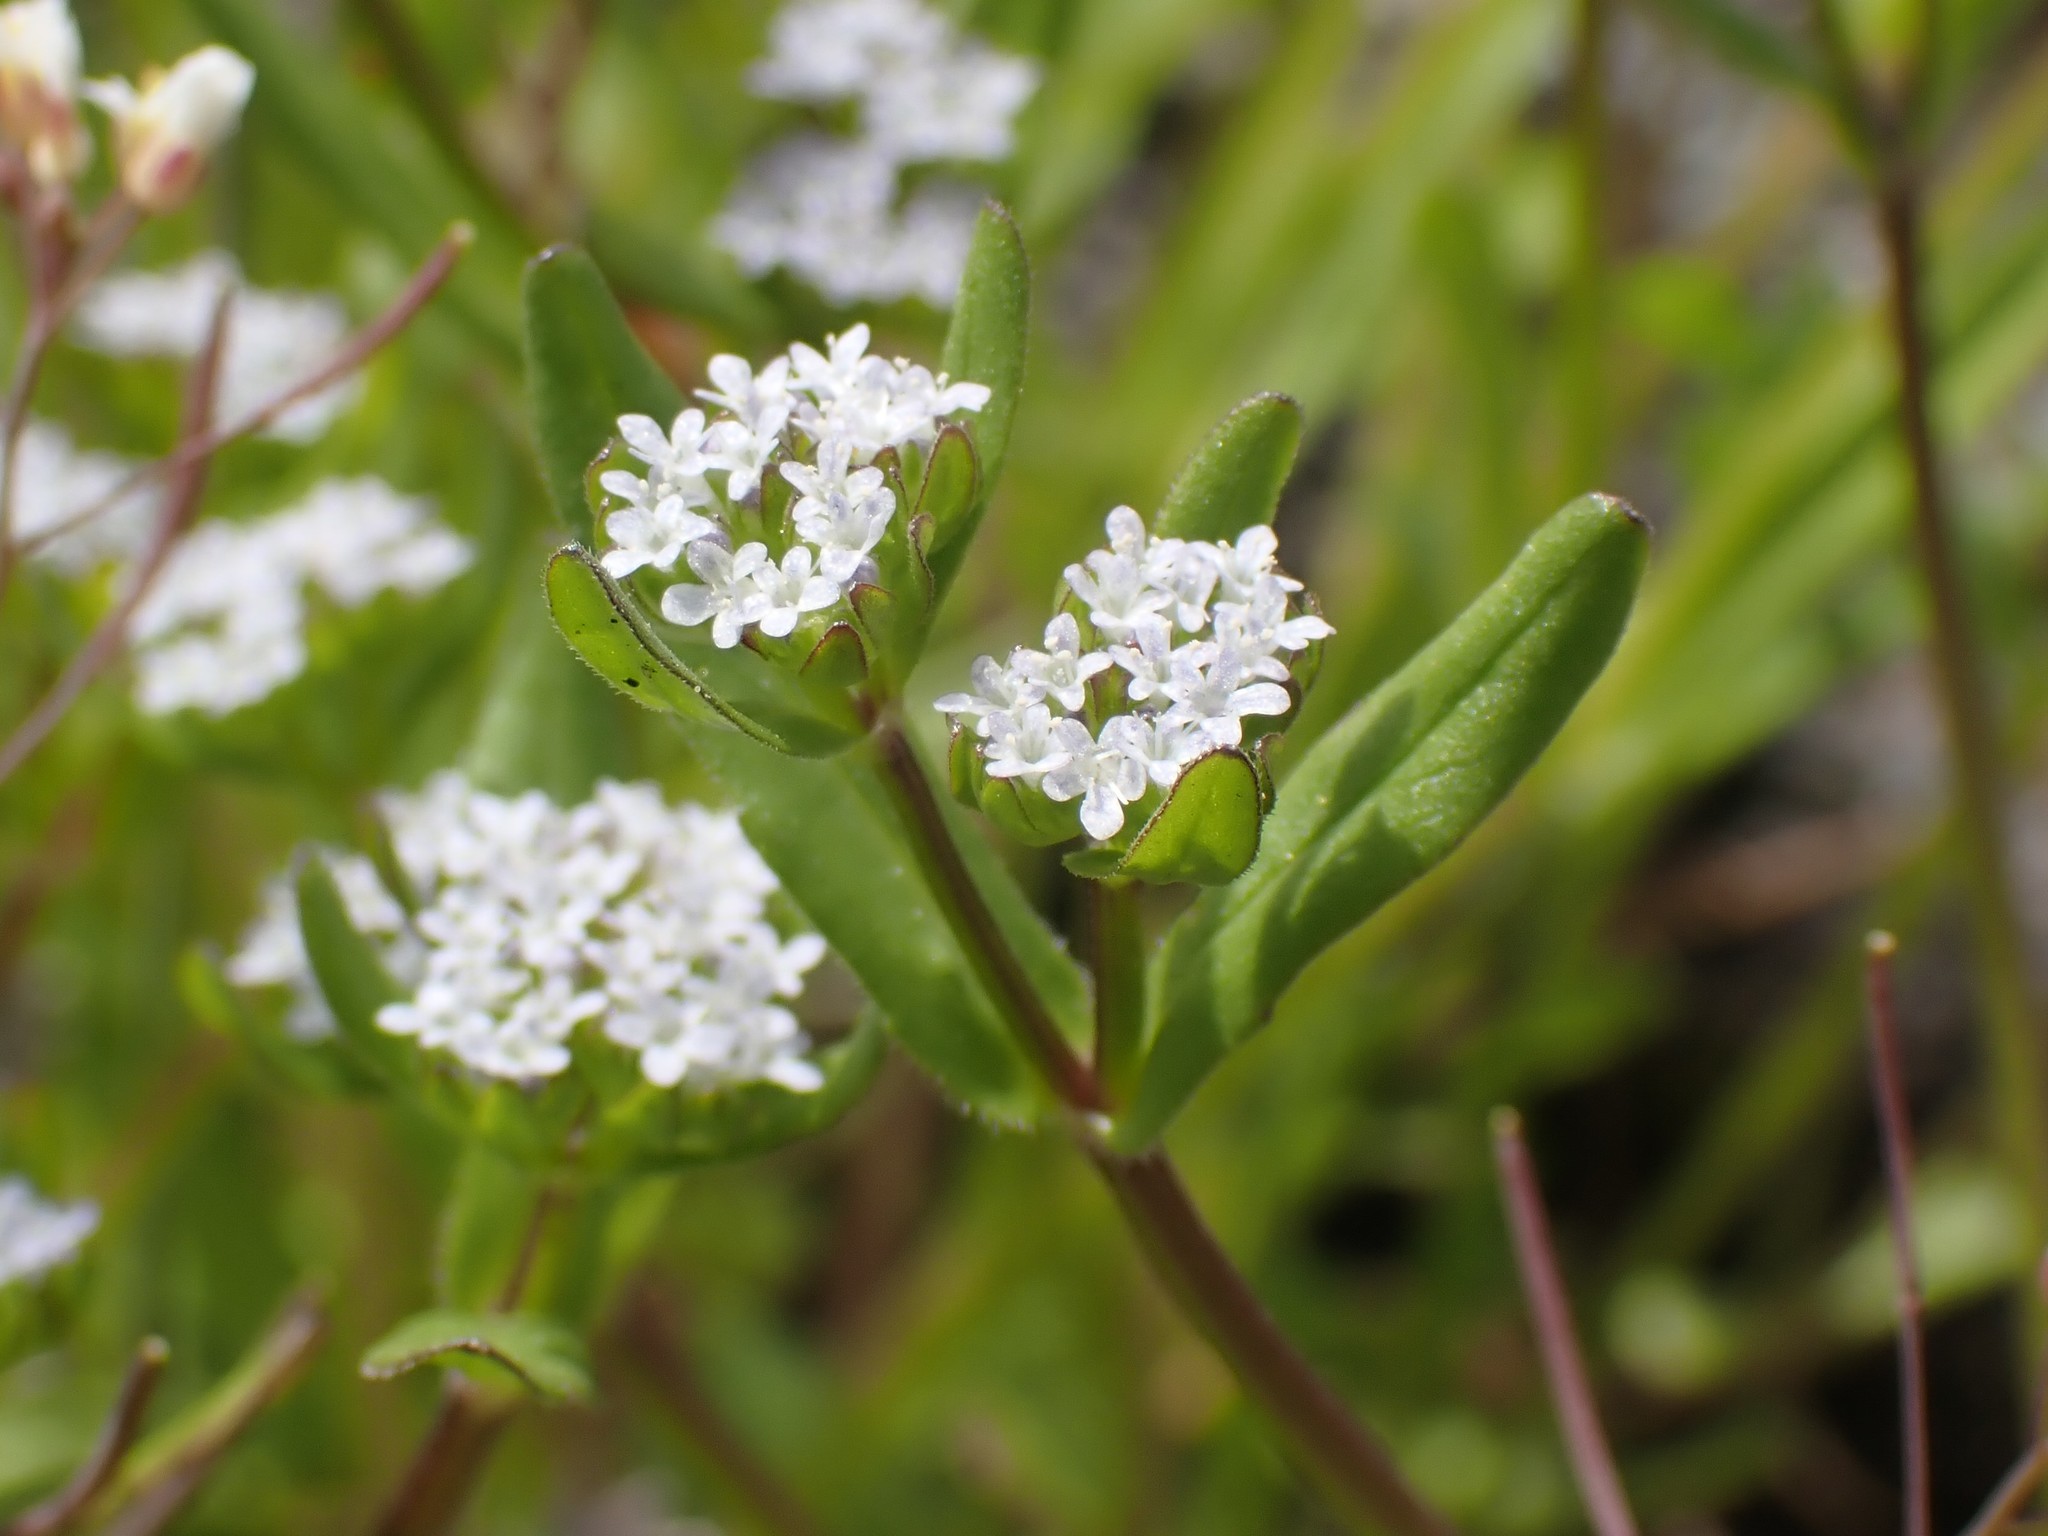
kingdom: Plantae
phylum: Tracheophyta
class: Magnoliopsida
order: Dipsacales
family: Caprifoliaceae
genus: Valerianella
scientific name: Valerianella locusta
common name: Common cornsalad
